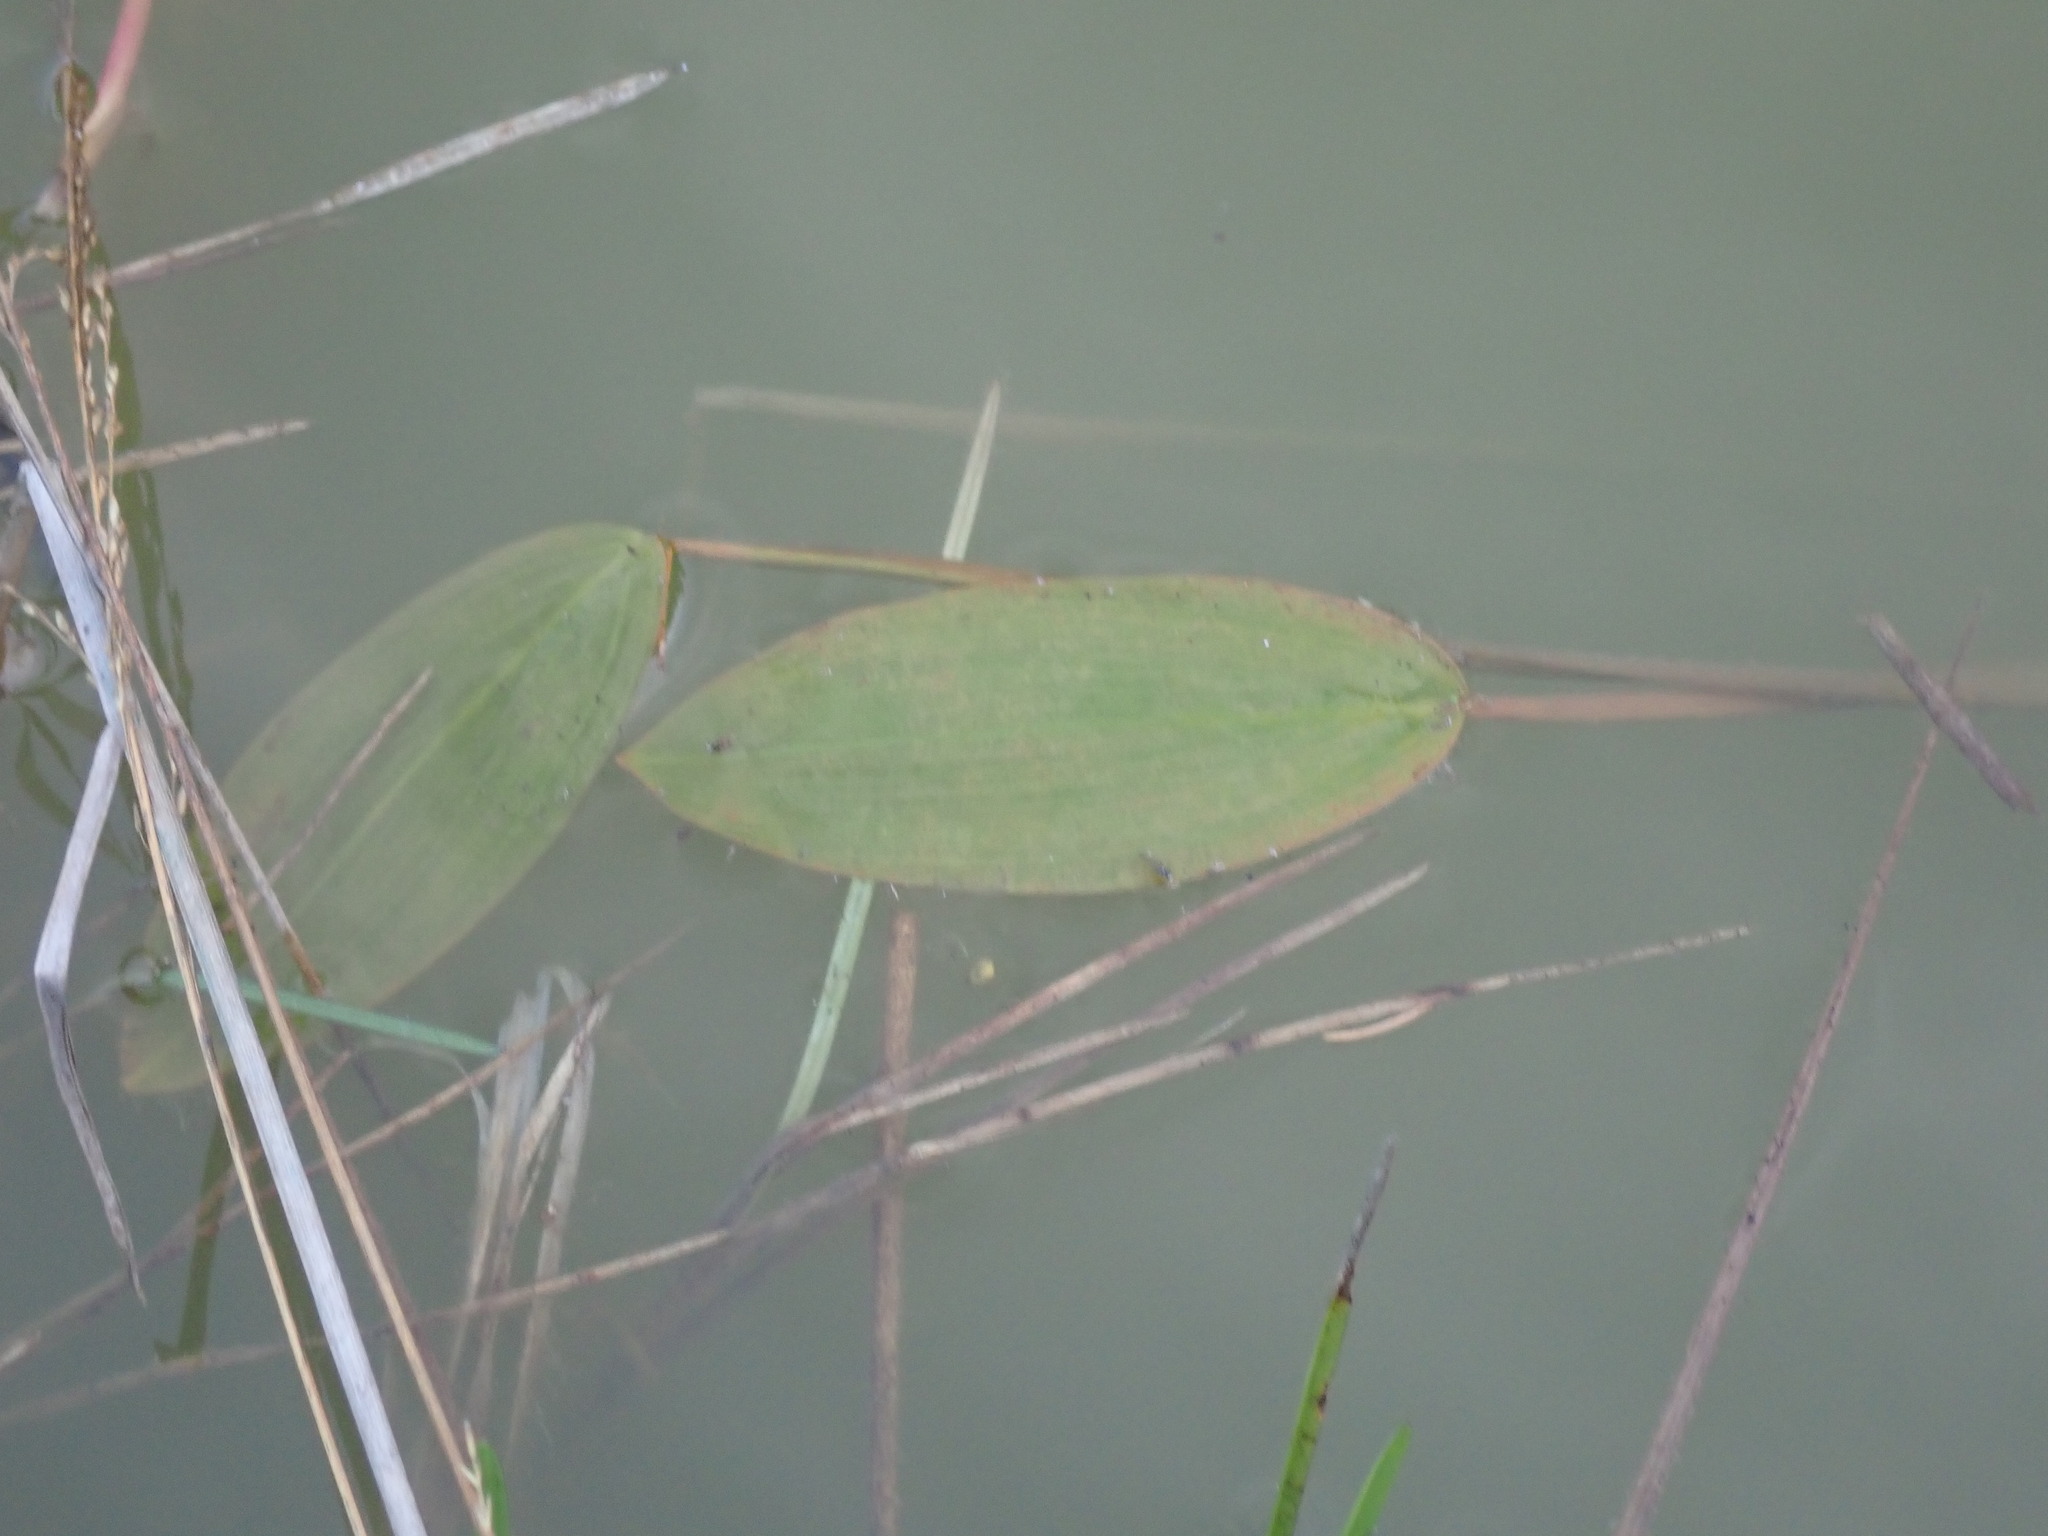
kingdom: Plantae
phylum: Tracheophyta
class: Liliopsida
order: Alismatales
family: Potamogetonaceae
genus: Potamogeton
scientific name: Potamogeton natans
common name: Broad-leaved pondweed
